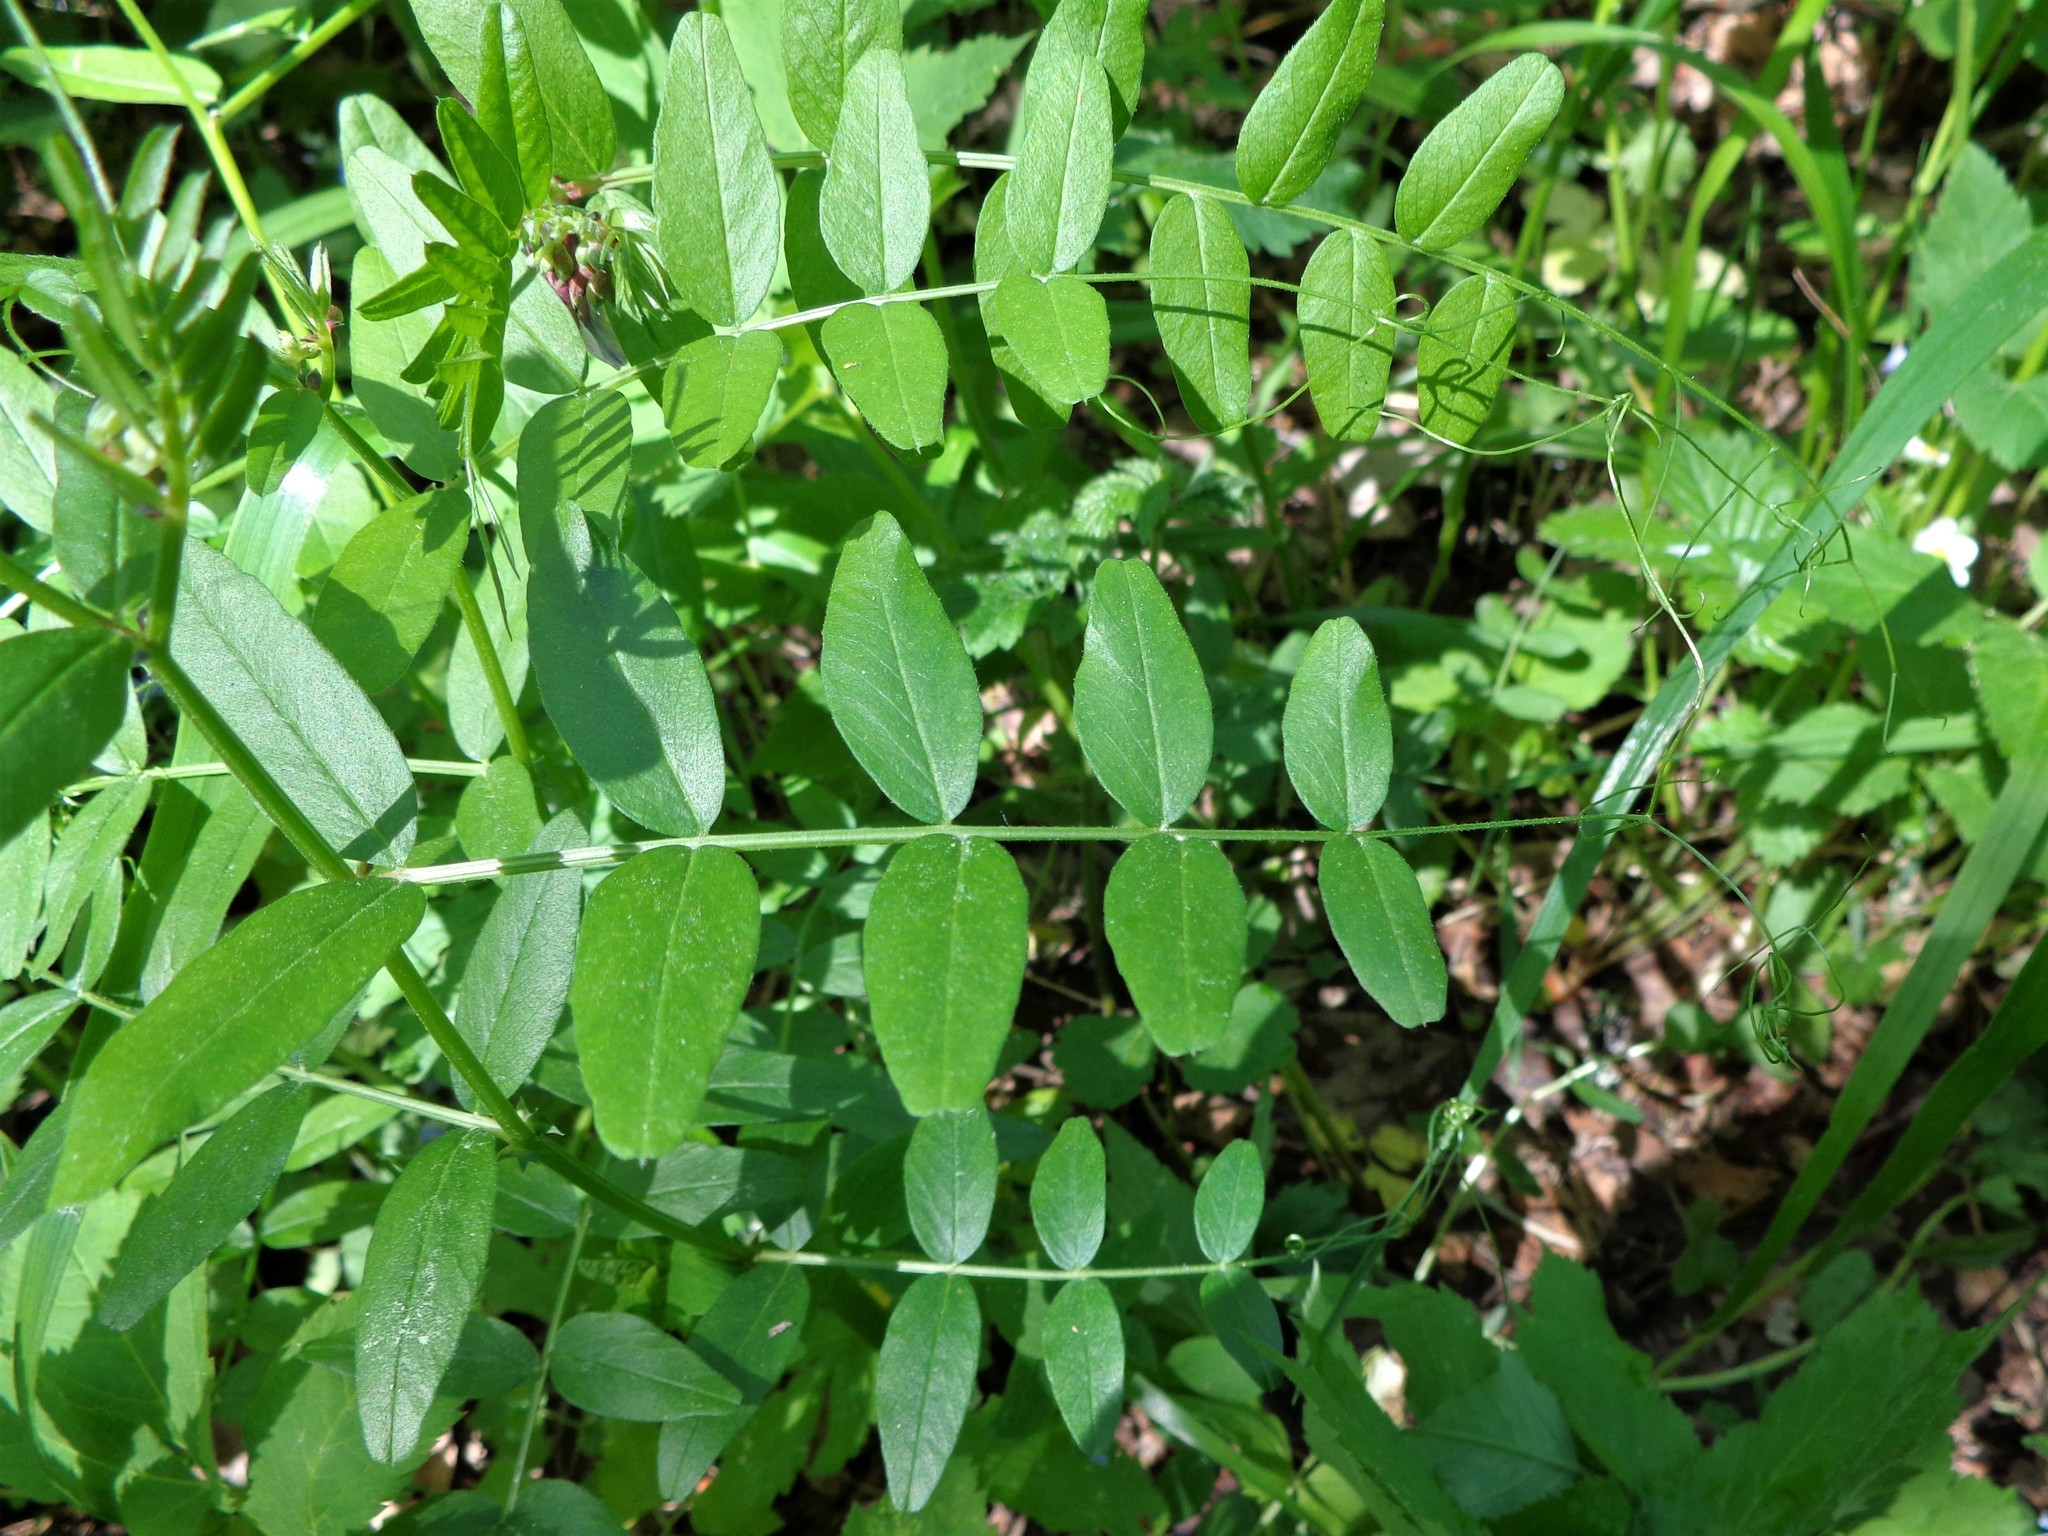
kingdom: Plantae
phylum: Tracheophyta
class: Magnoliopsida
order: Fabales
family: Fabaceae
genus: Vicia
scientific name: Vicia sepium
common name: Bush vetch
